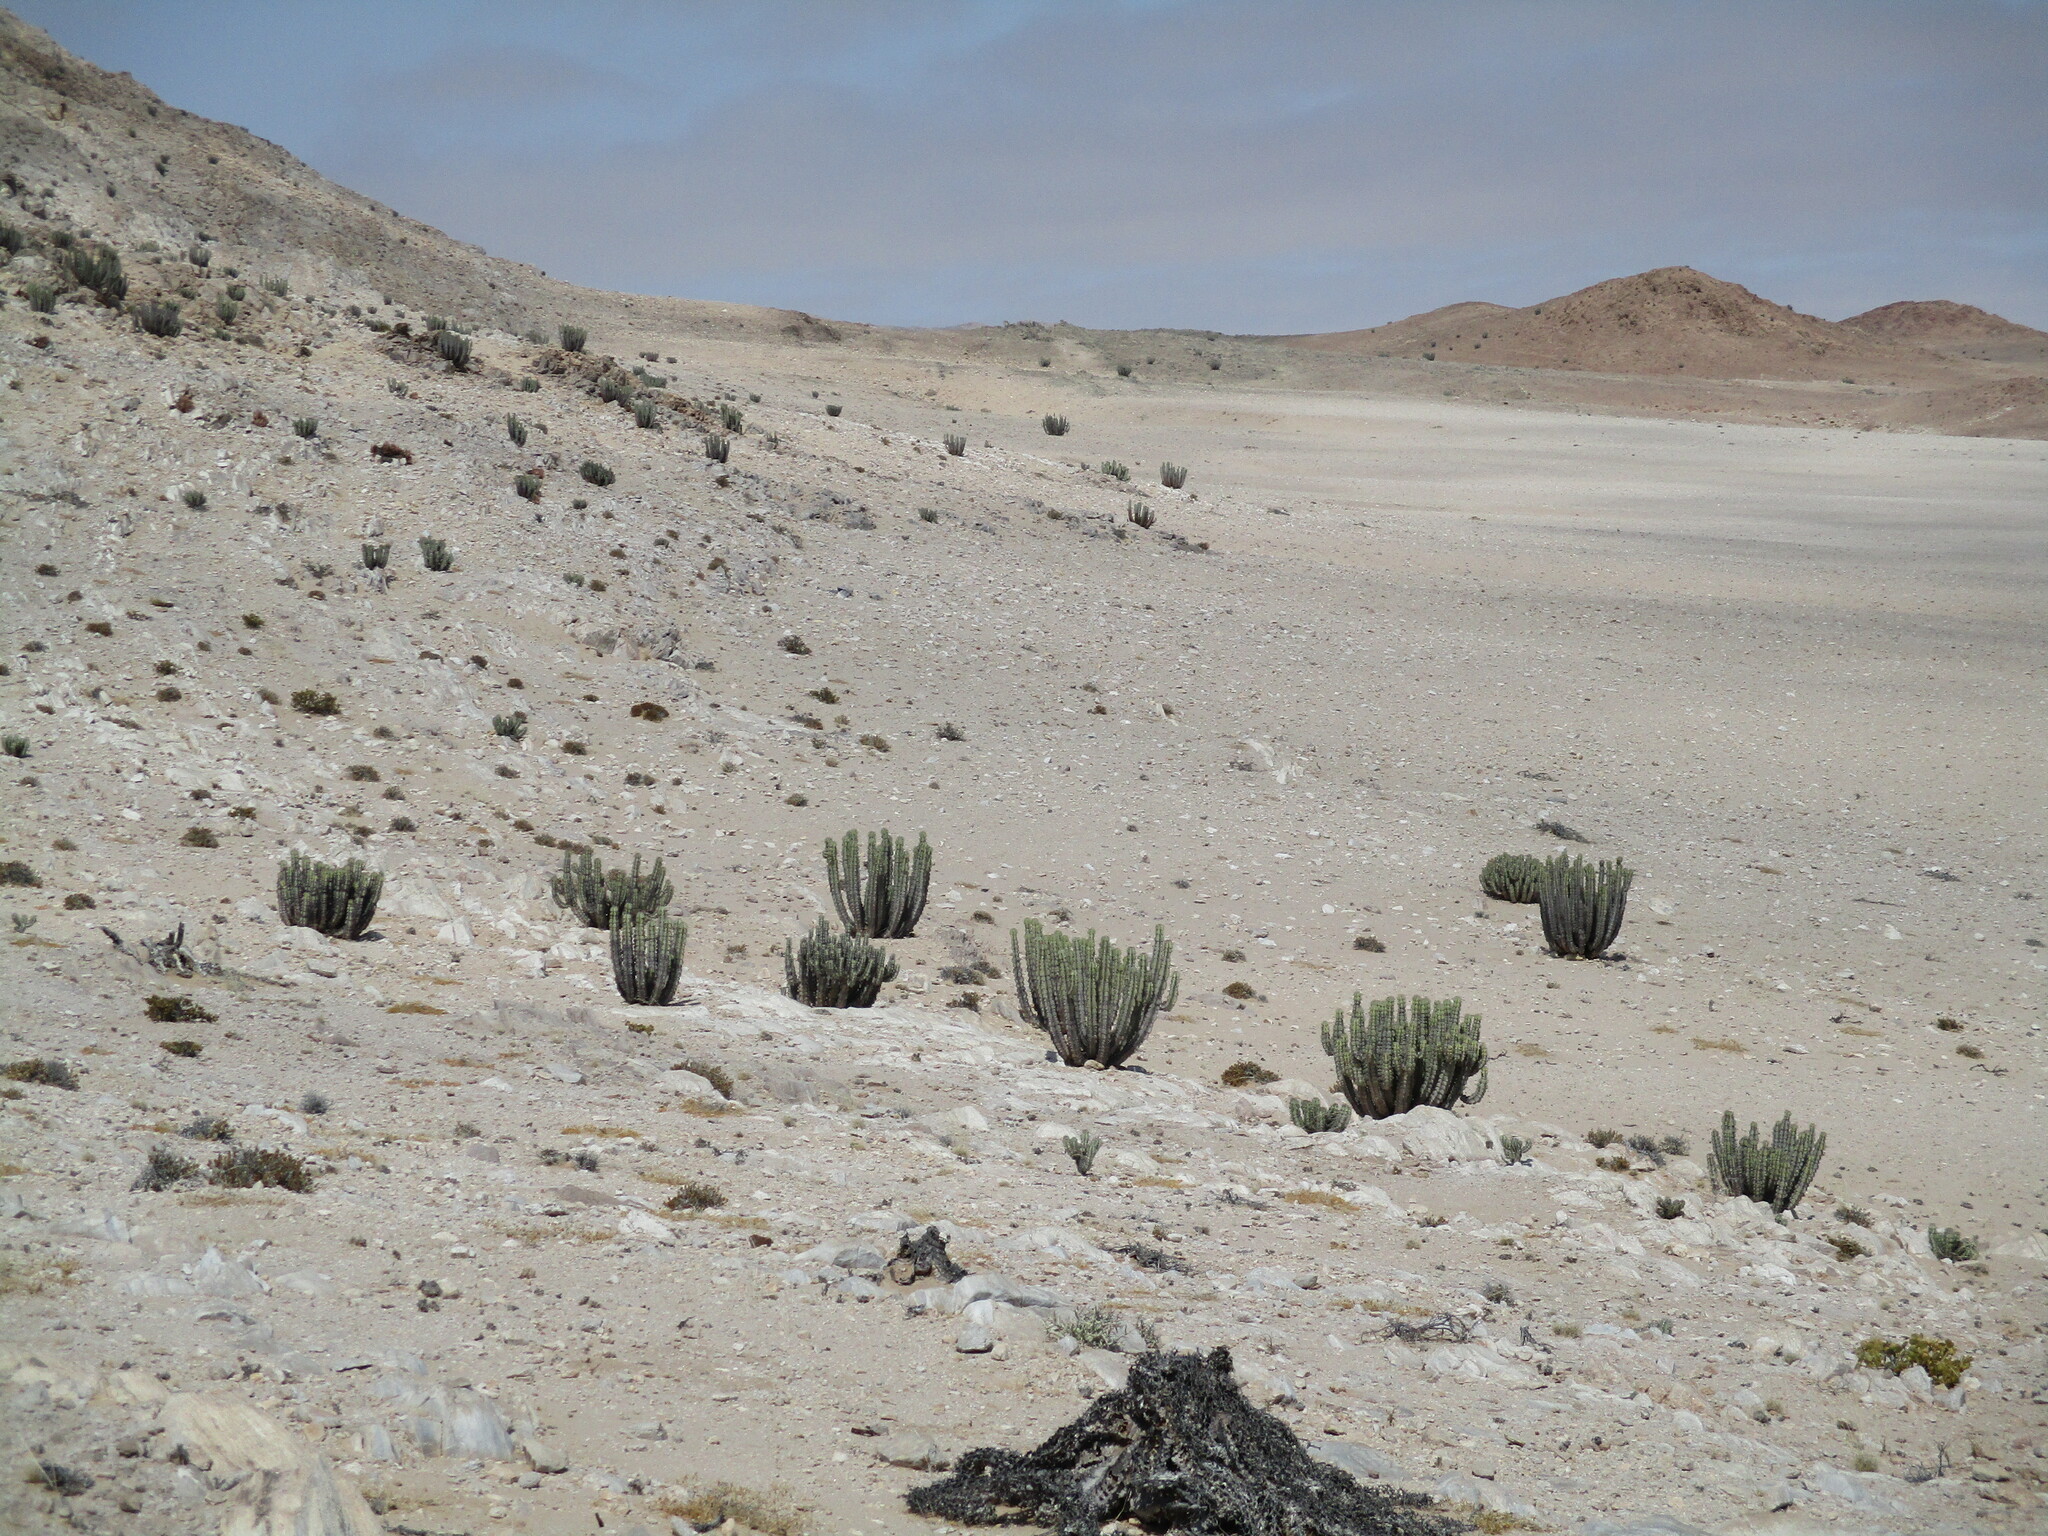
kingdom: Plantae
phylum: Tracheophyta
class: Magnoliopsida
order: Malpighiales
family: Euphorbiaceae
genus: Euphorbia
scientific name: Euphorbia virosa
